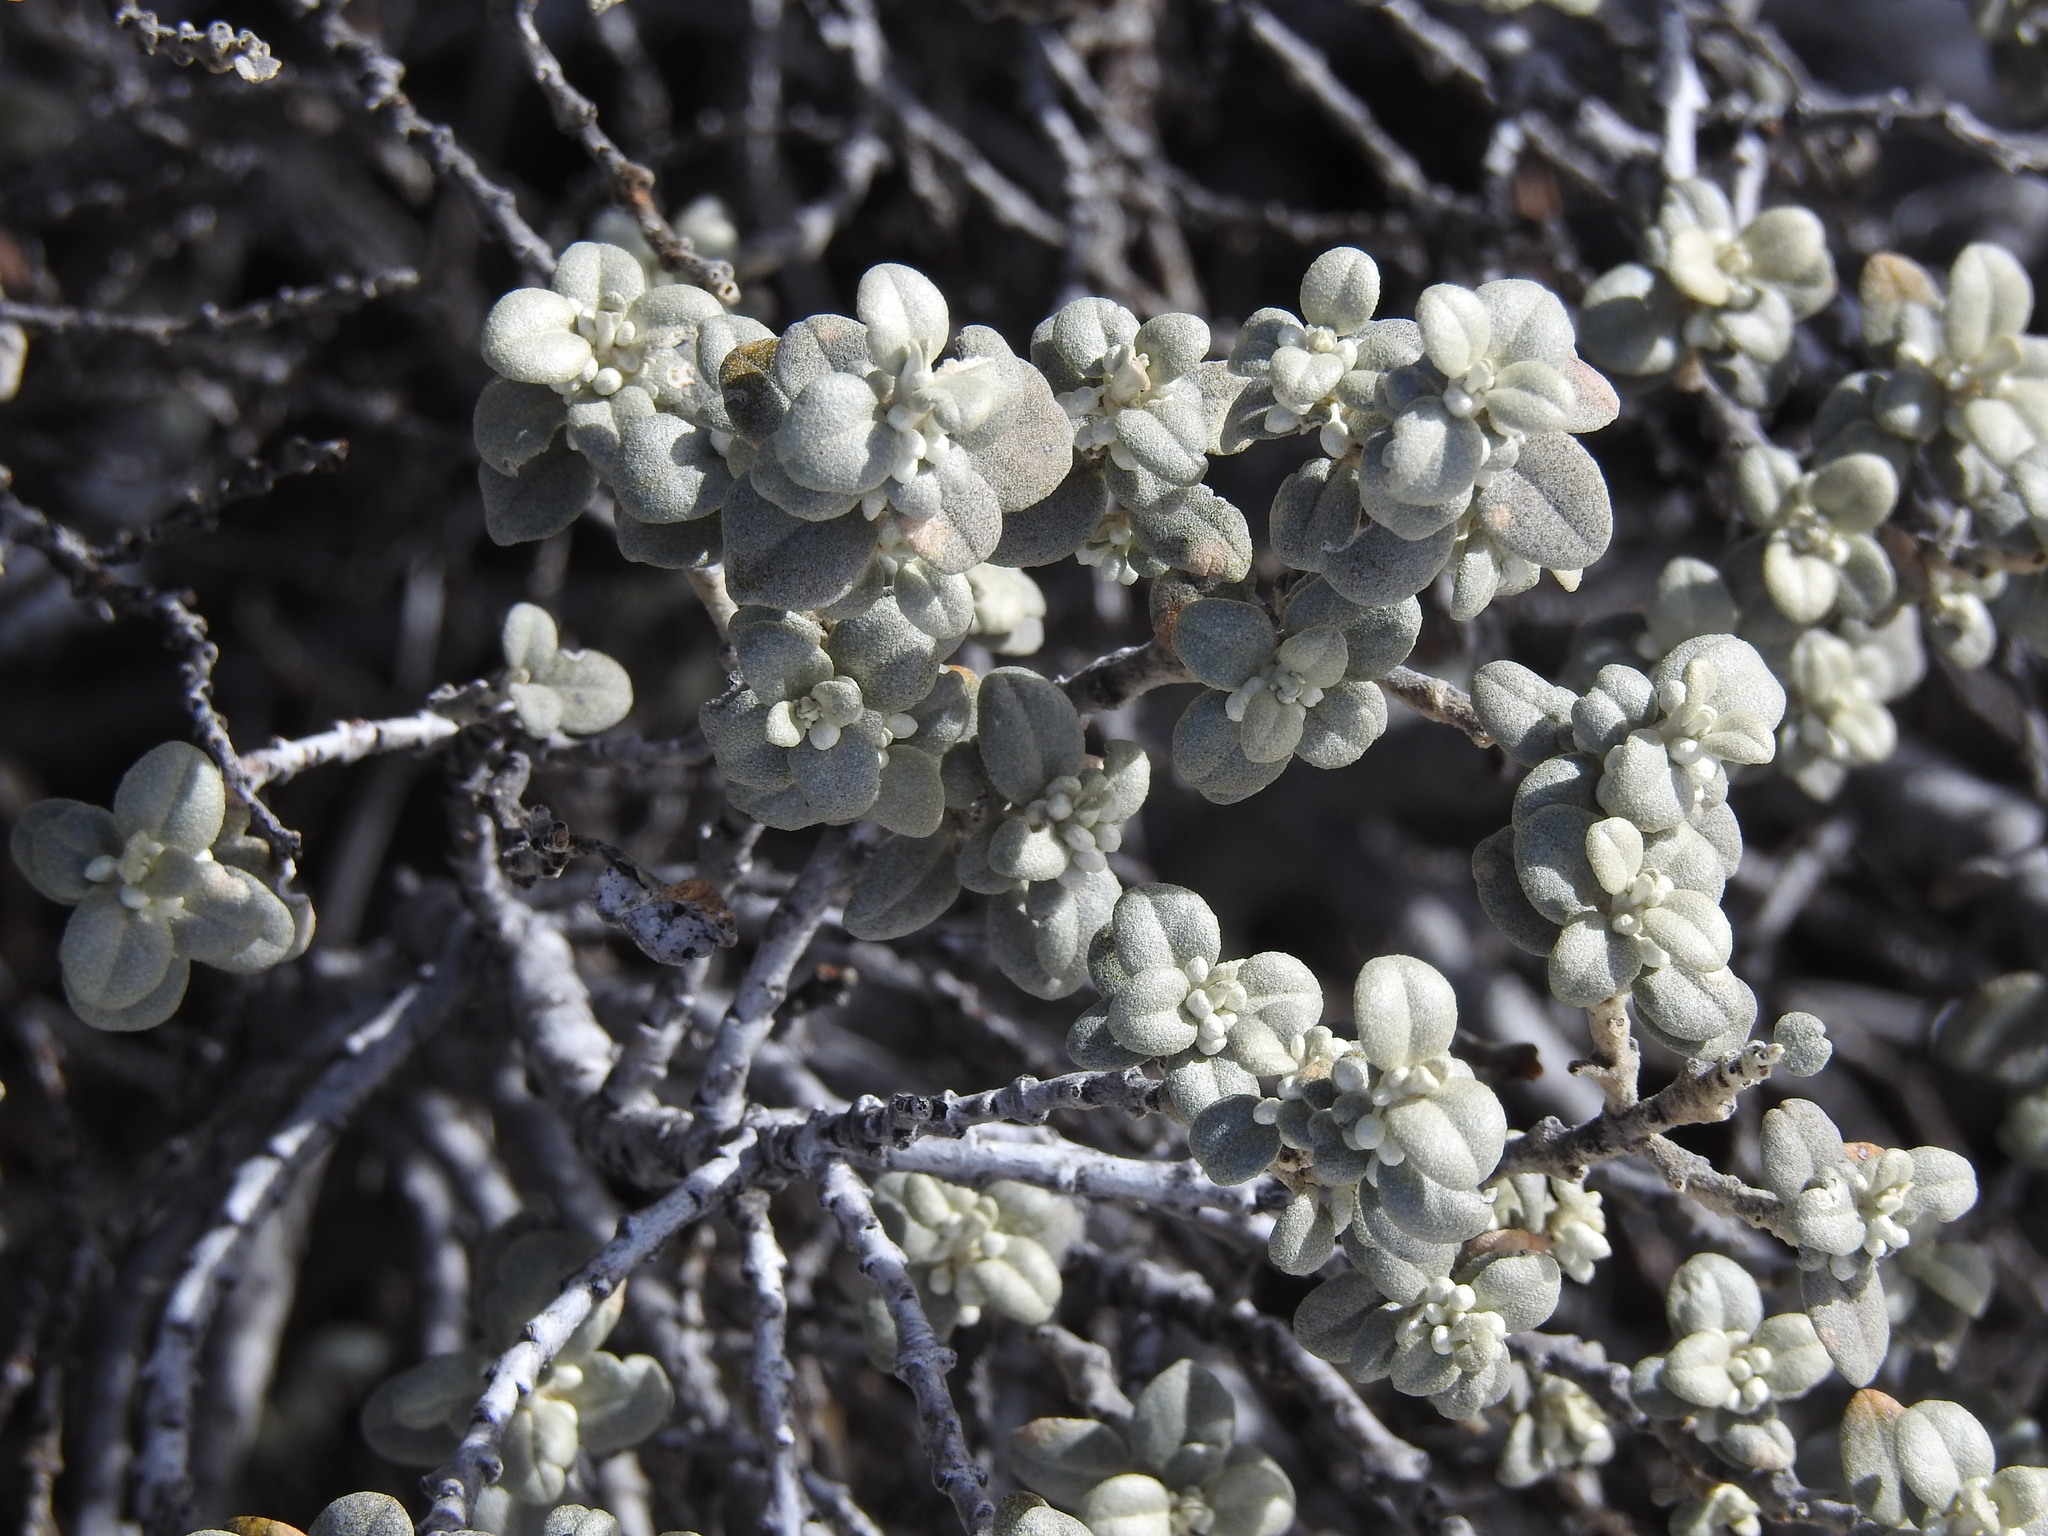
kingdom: Plantae
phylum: Tracheophyta
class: Magnoliopsida
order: Rosales
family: Elaeagnaceae
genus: Shepherdia
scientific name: Shepherdia rotundifolia
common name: Silverscale
